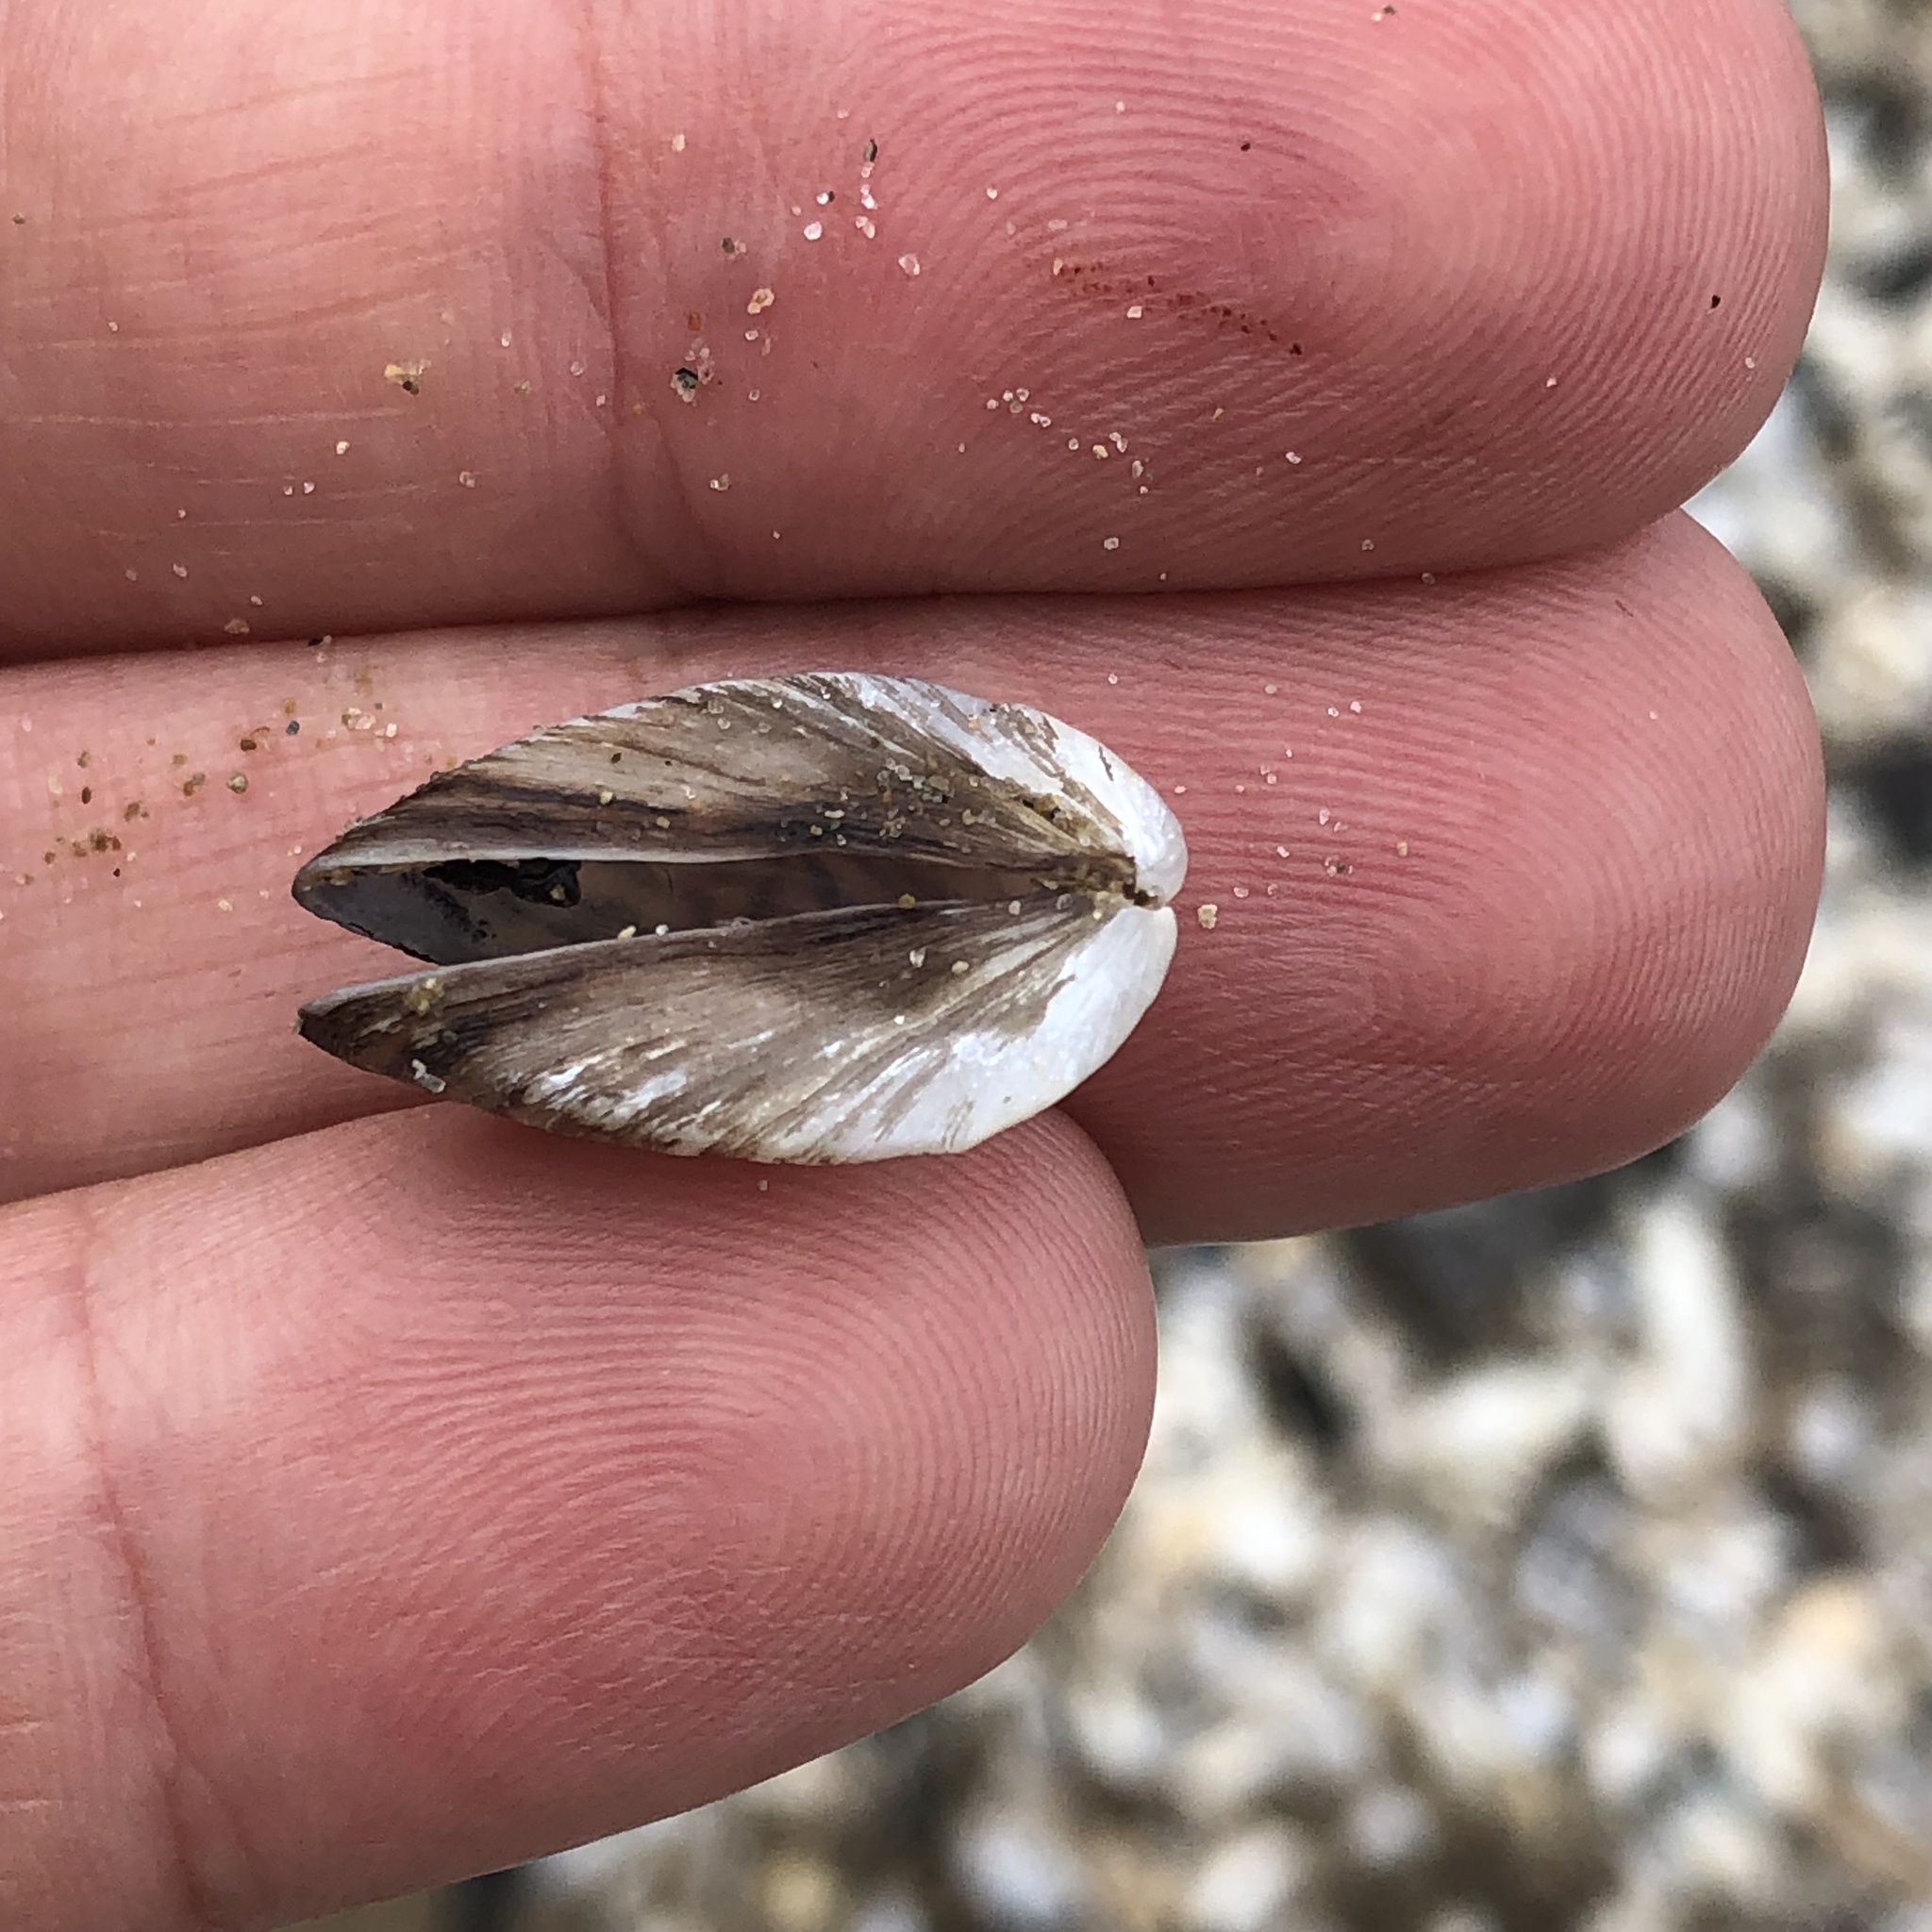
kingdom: Animalia
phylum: Mollusca
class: Bivalvia
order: Myida
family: Dreissenidae
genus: Dreissena
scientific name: Dreissena polymorpha
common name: Zebra mussel
